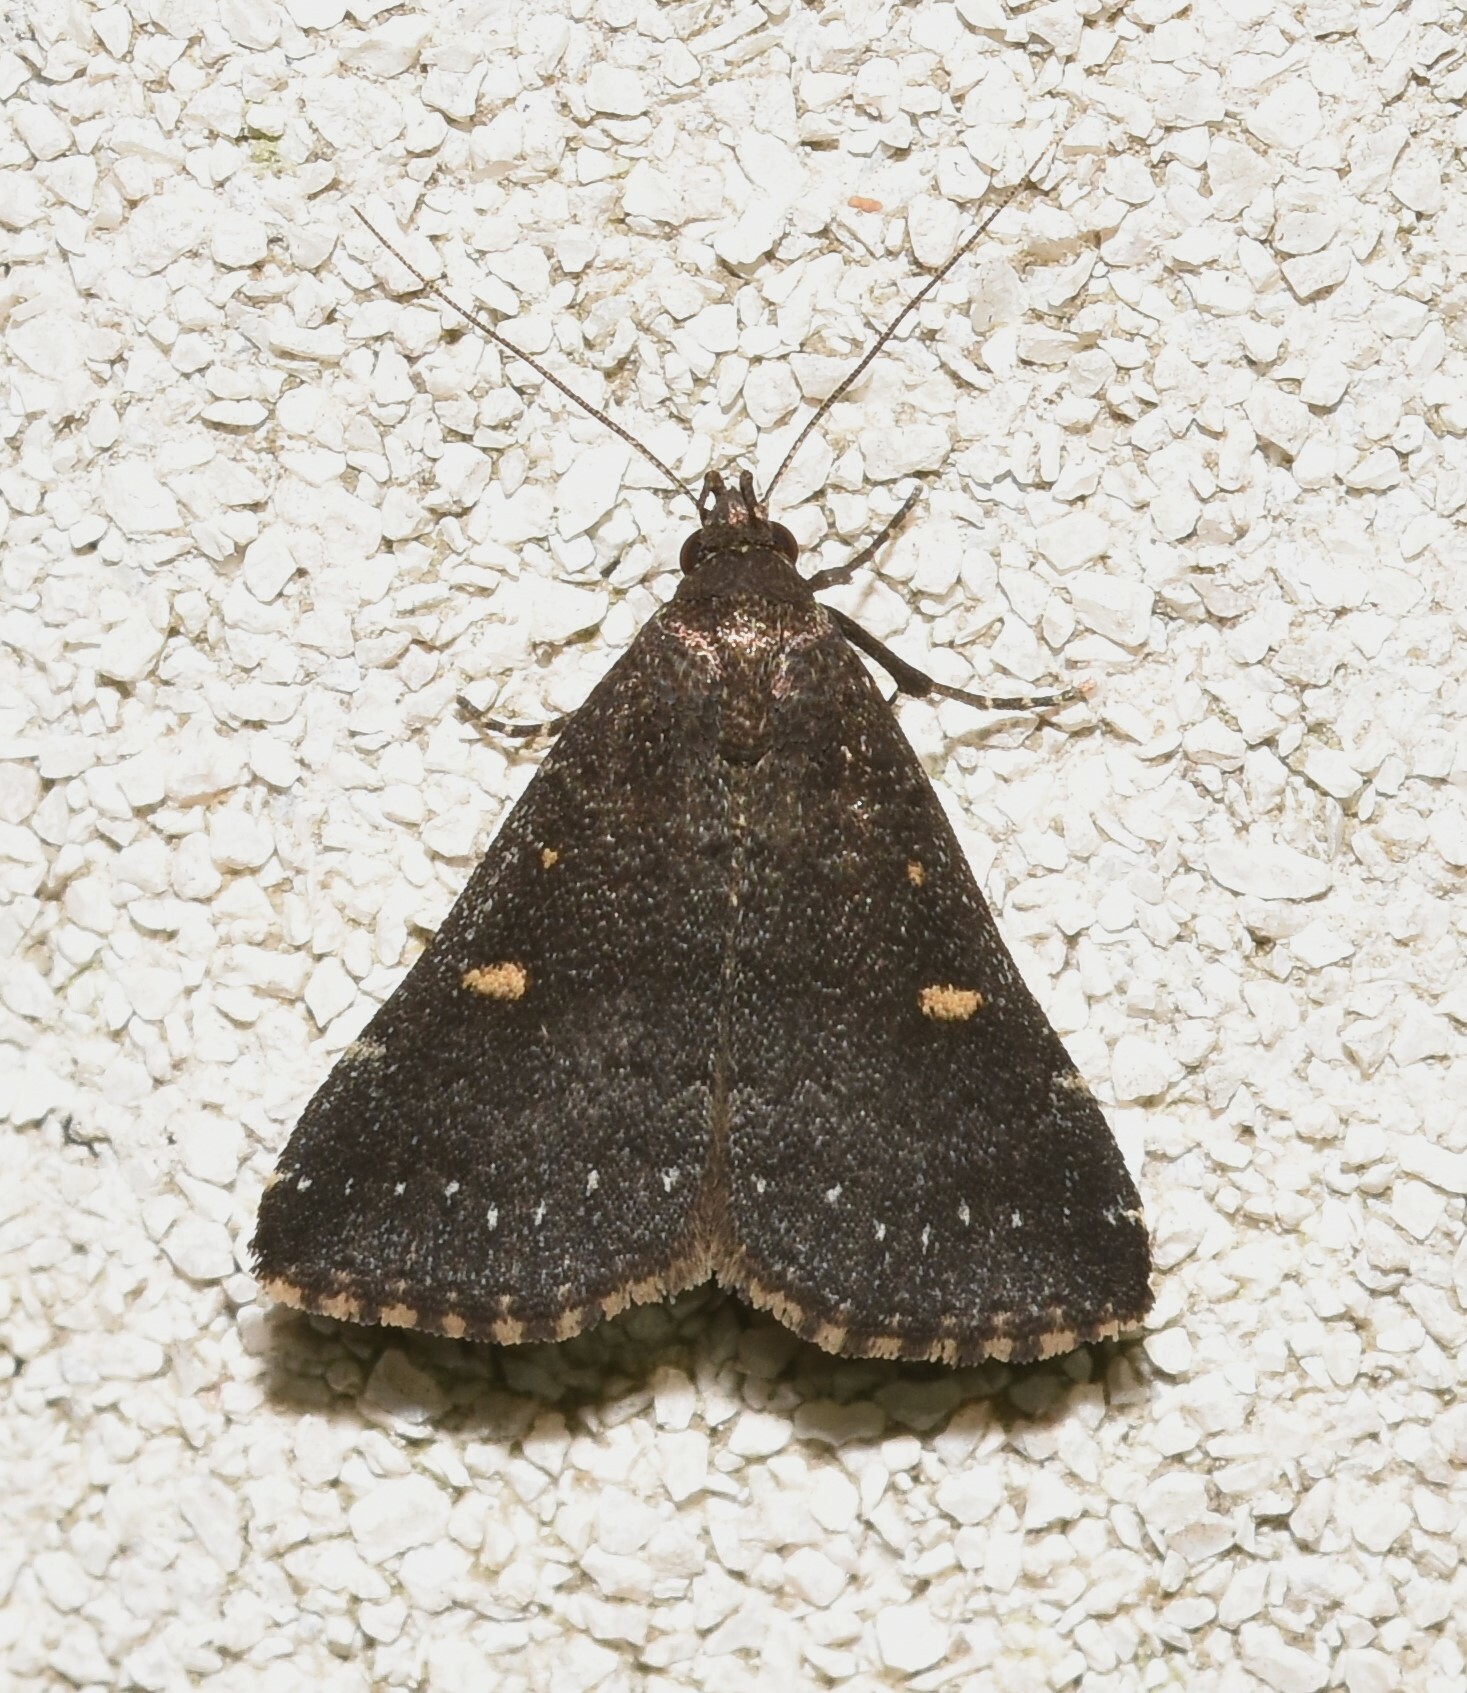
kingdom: Animalia
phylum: Arthropoda
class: Insecta
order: Lepidoptera
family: Erebidae
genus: Tetanolita
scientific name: Tetanolita mynesalis
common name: Smoky tetanolita moth
